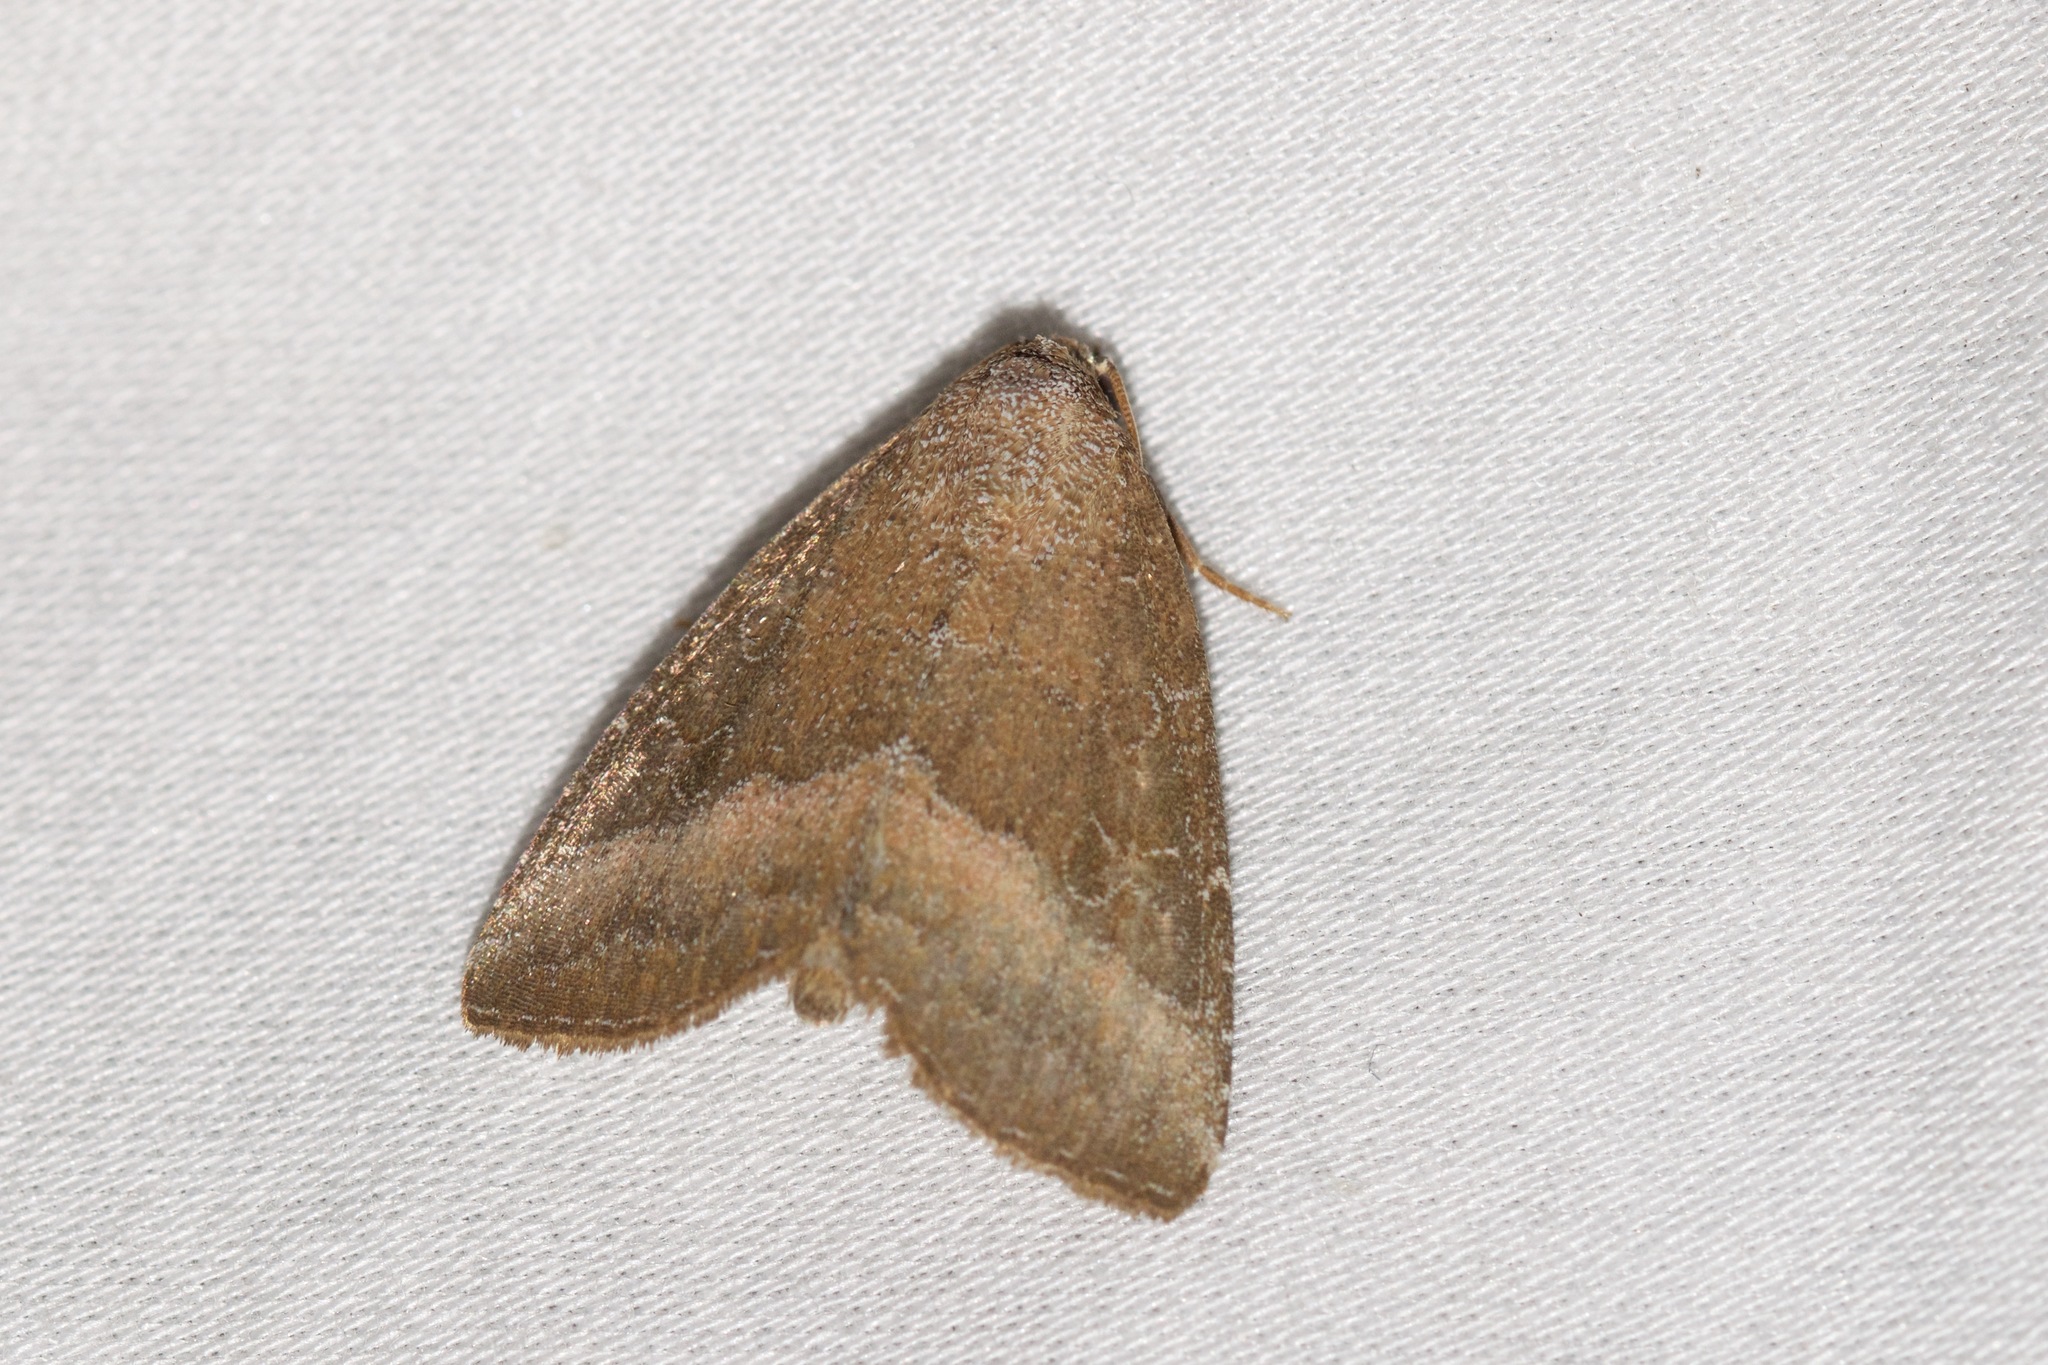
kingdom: Animalia
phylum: Arthropoda
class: Insecta
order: Lepidoptera
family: Noctuidae
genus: Ogdoconta
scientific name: Ogdoconta cinereola
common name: Common pinkband
